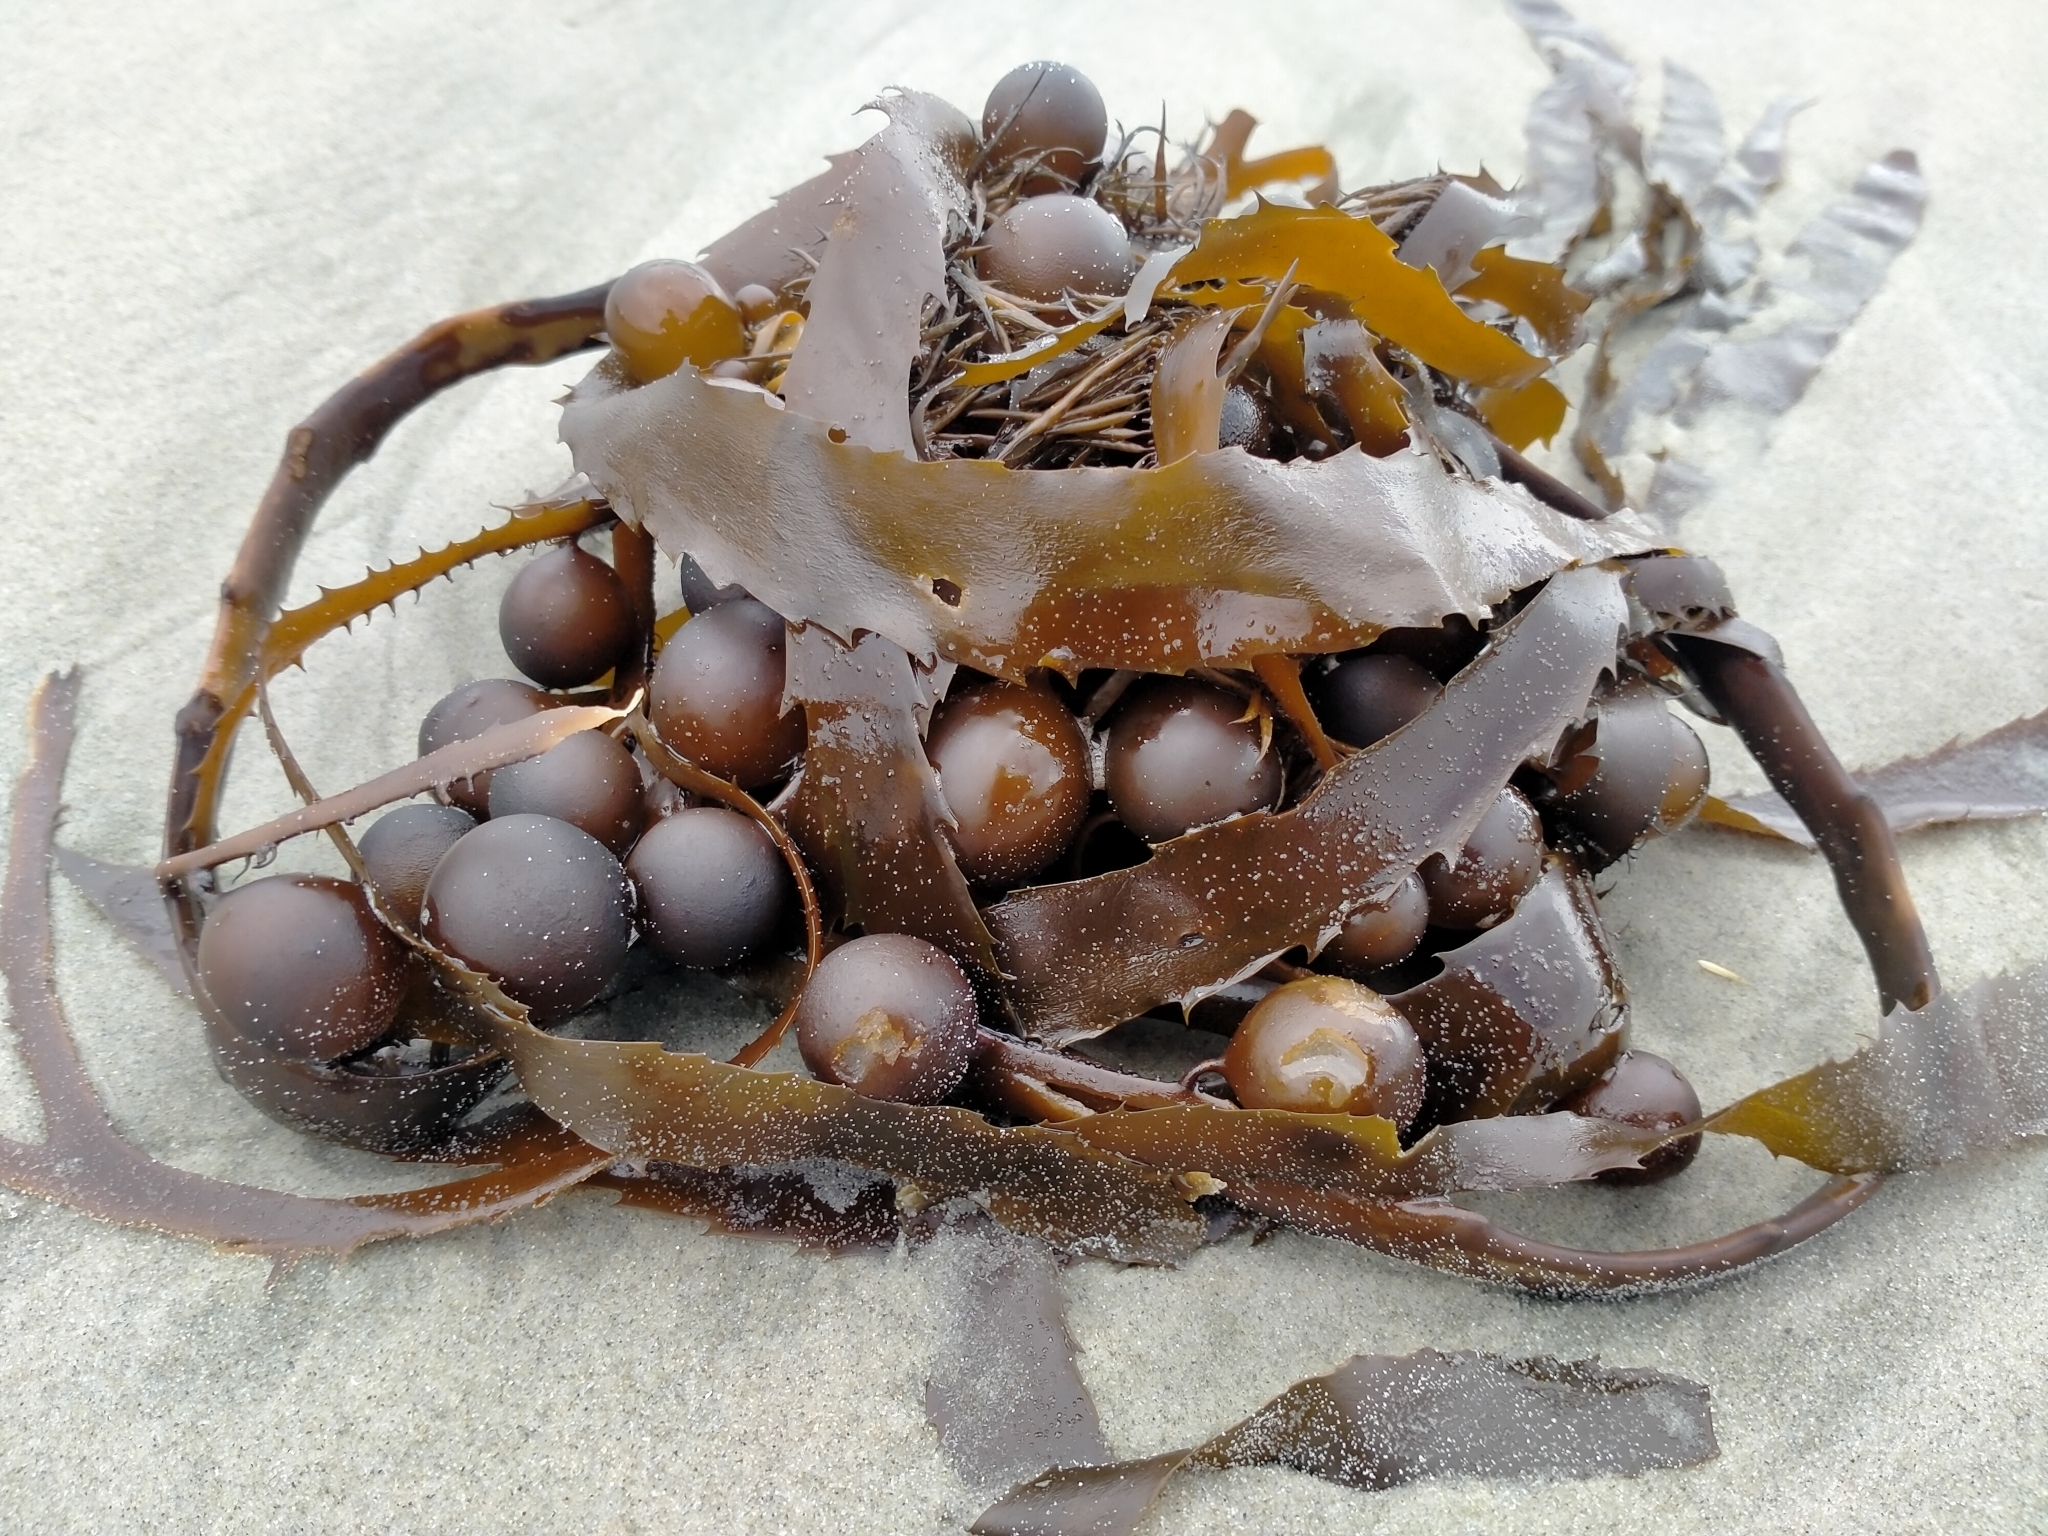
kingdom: Chromista
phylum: Ochrophyta
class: Phaeophyceae
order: Fucales
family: Seirococcaceae
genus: Marginariella
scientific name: Marginariella urvilliana
